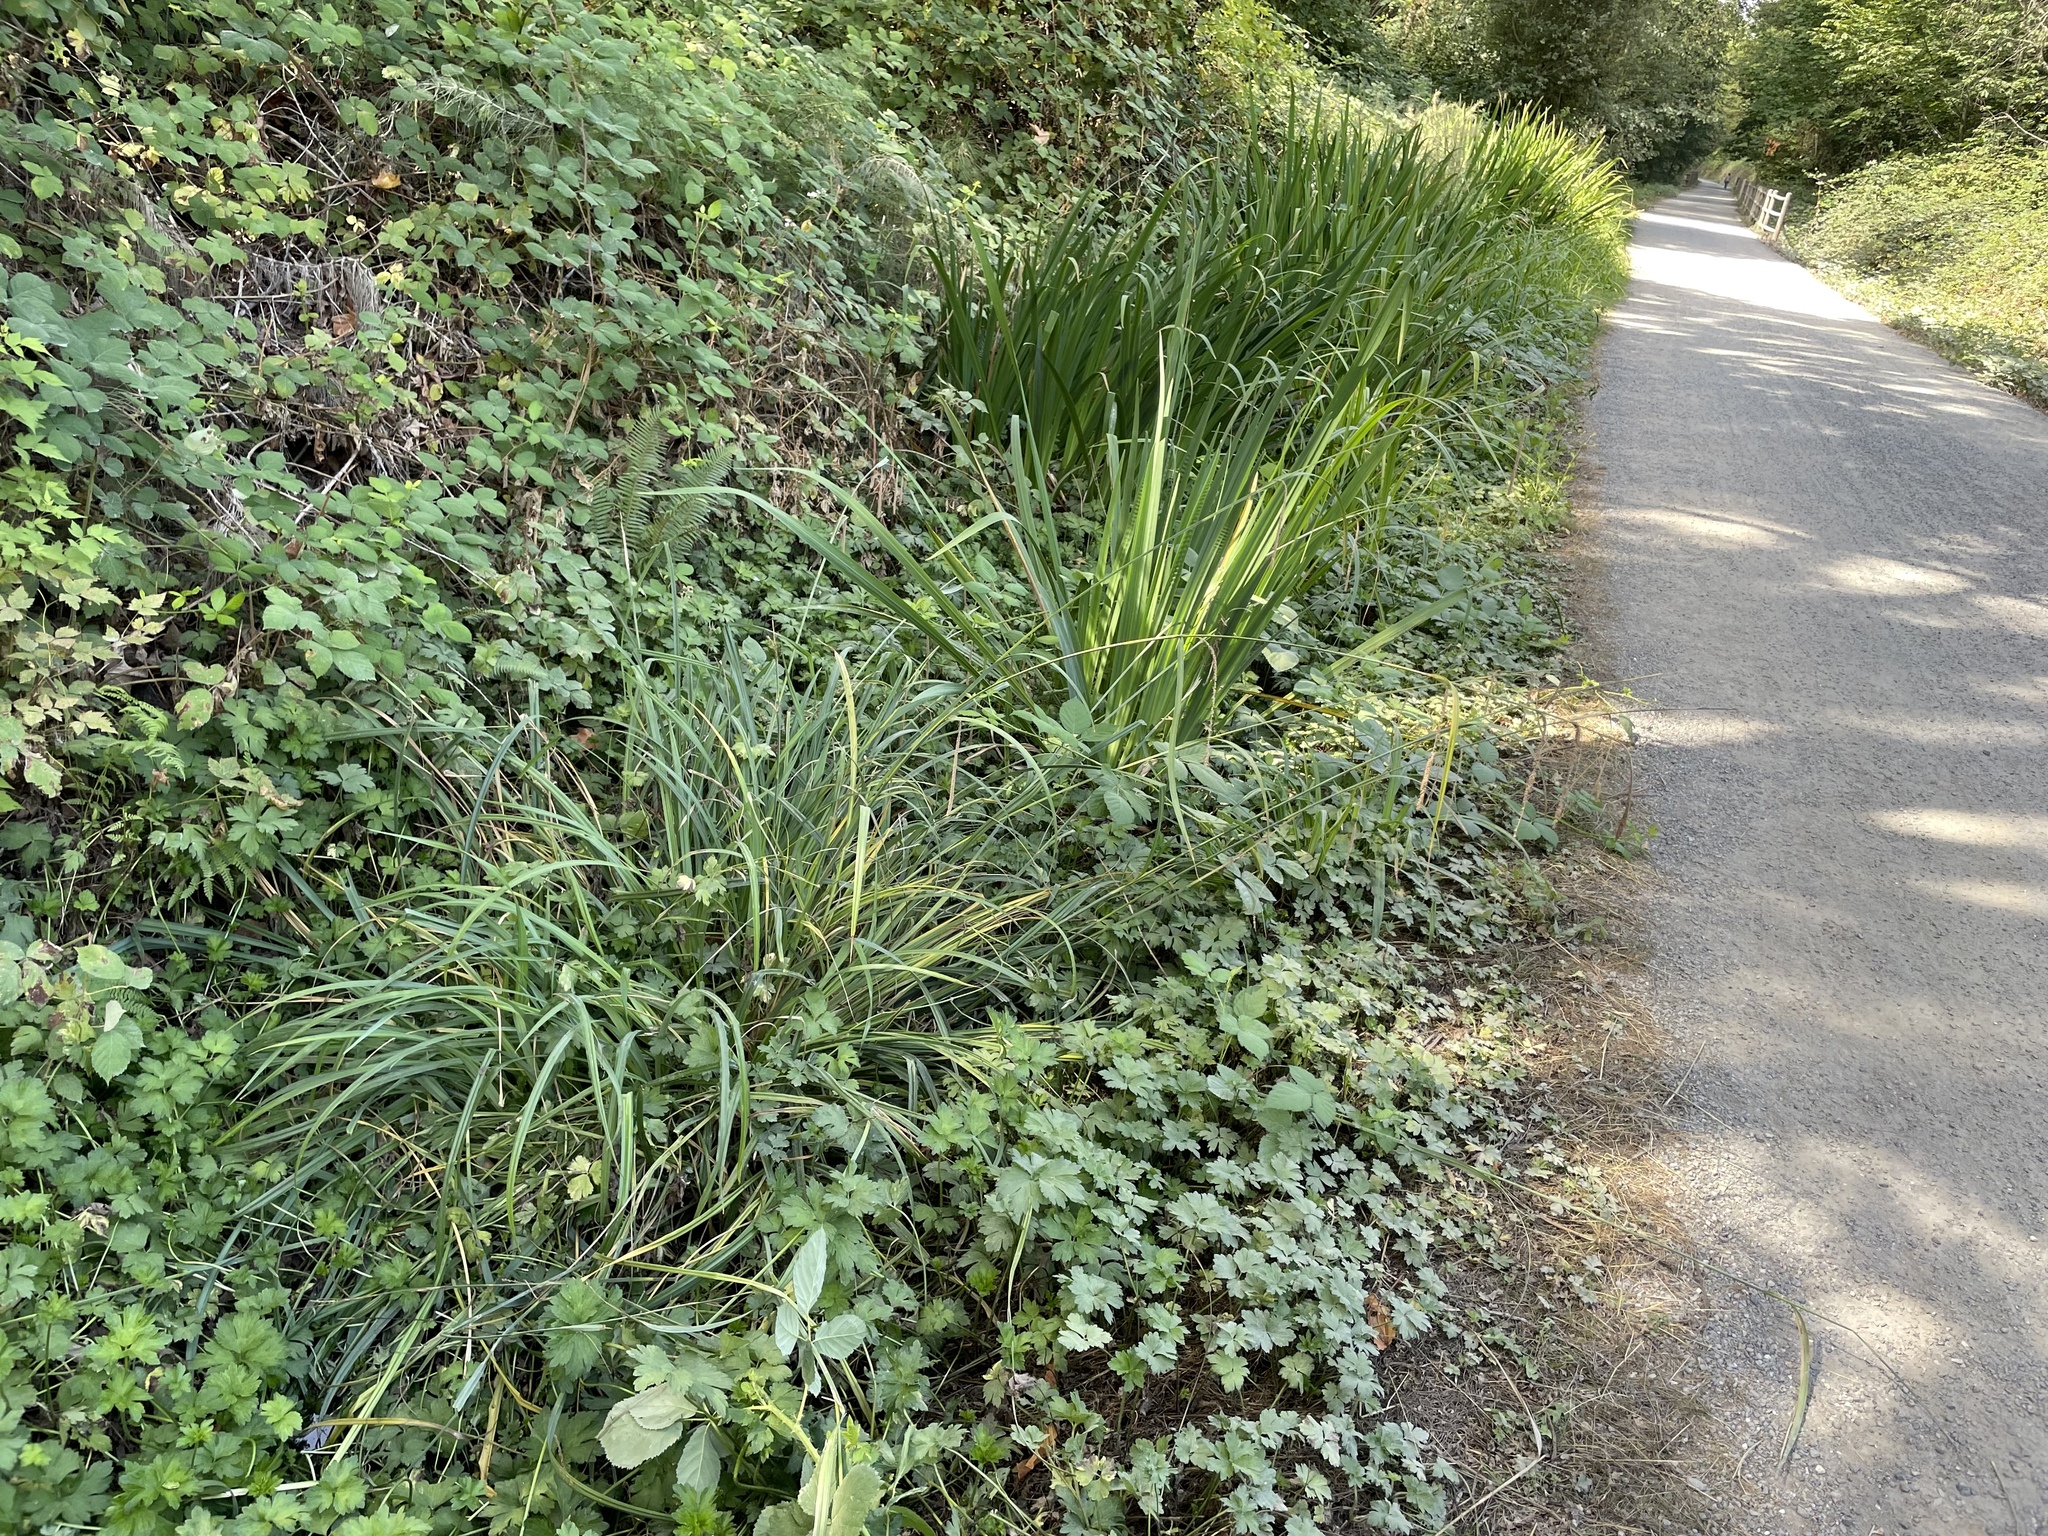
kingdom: Plantae
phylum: Tracheophyta
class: Liliopsida
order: Poales
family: Cyperaceae
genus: Carex
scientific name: Carex pendula
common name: Pendulous sedge
